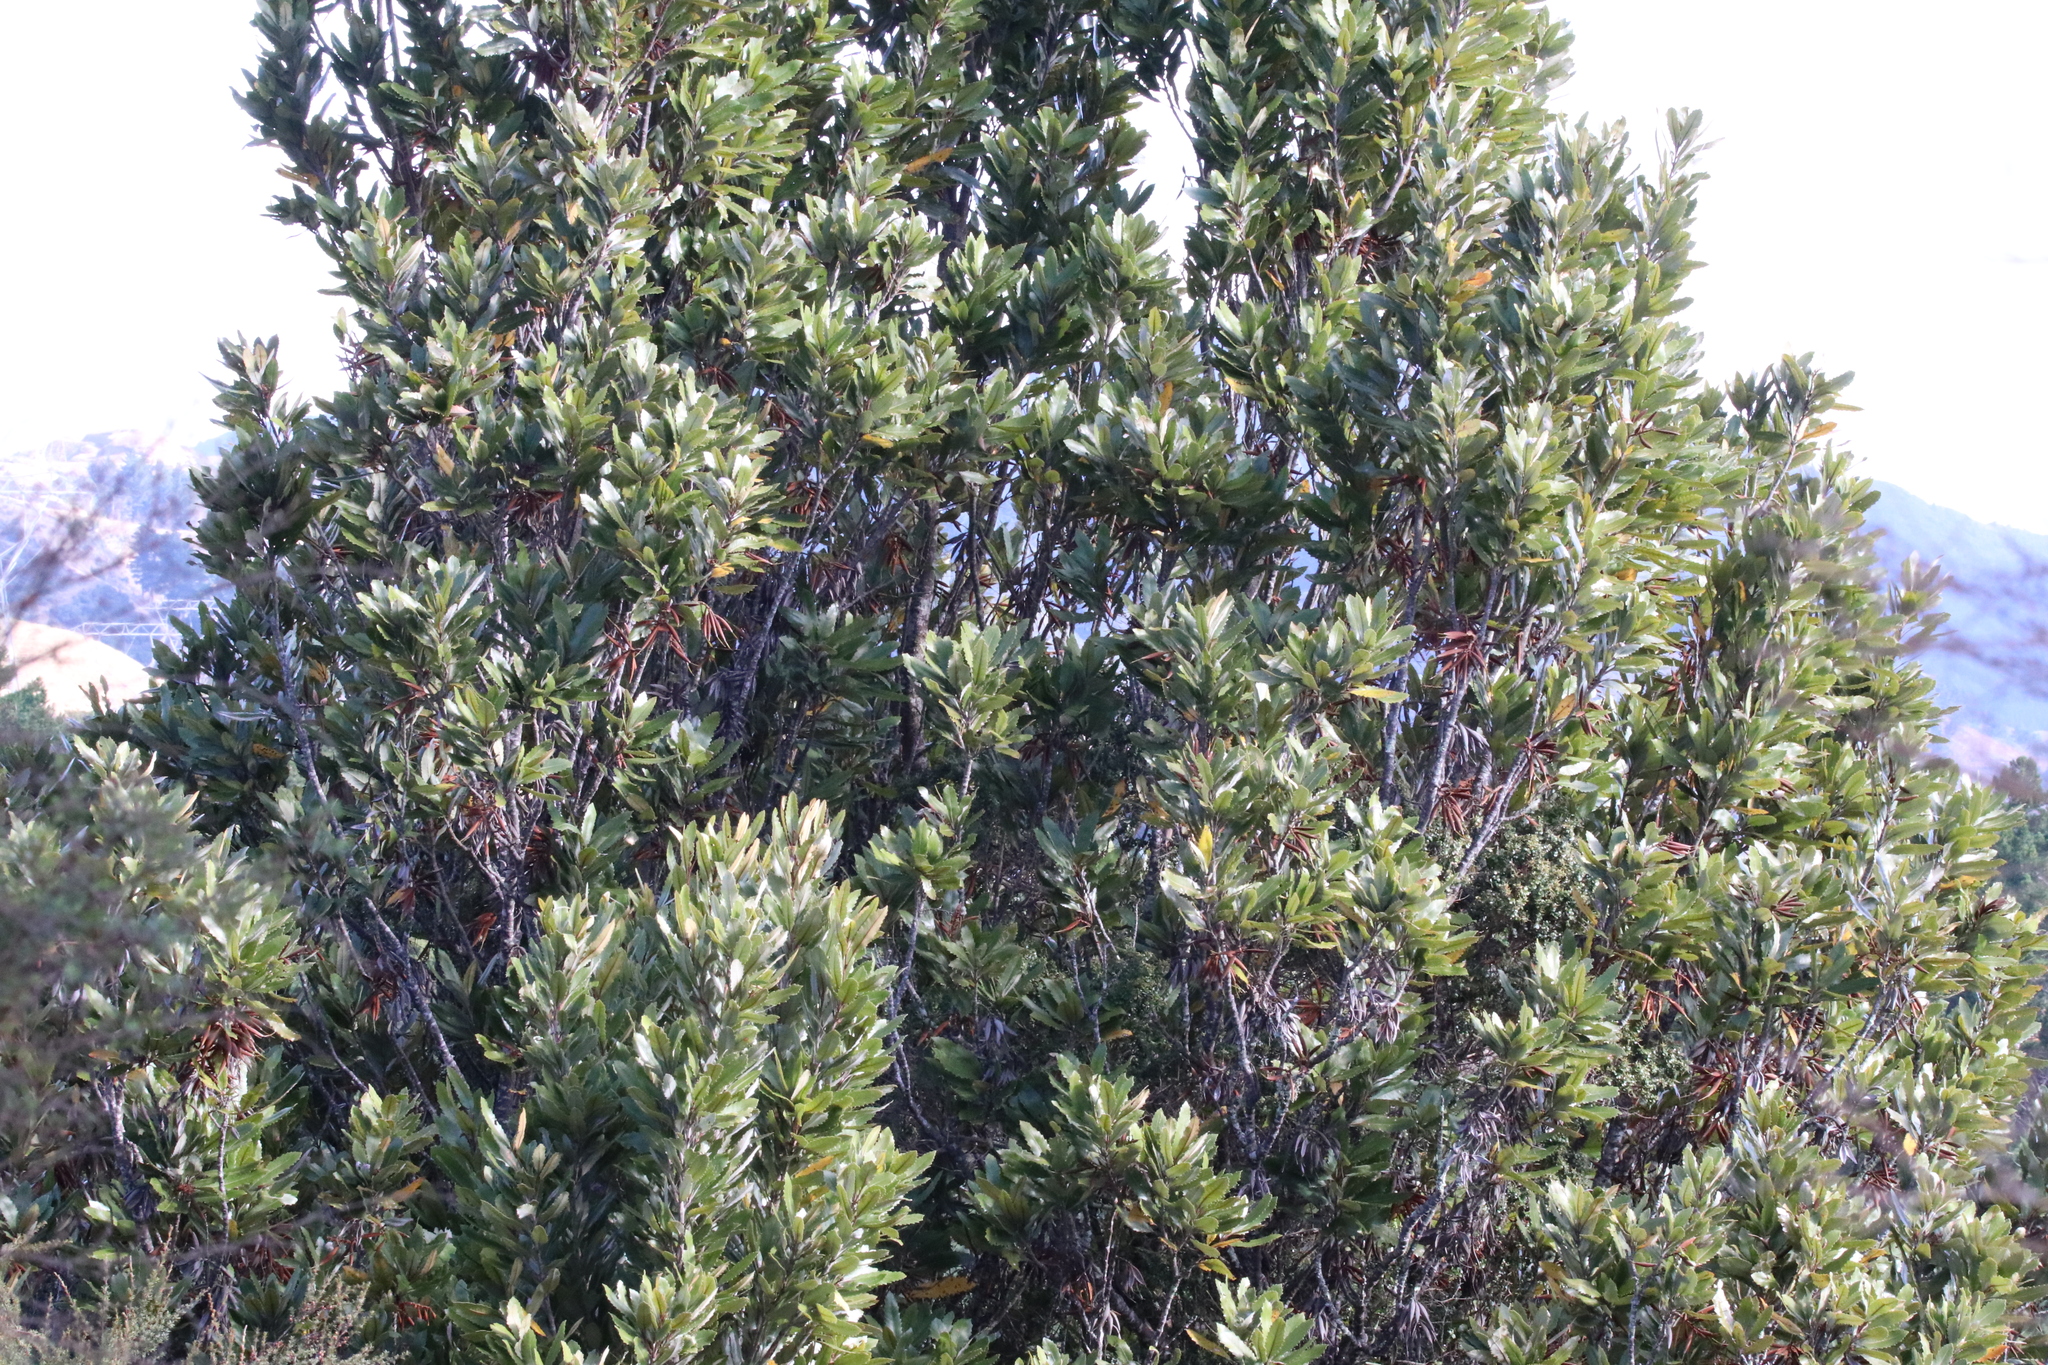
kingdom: Plantae
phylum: Tracheophyta
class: Magnoliopsida
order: Proteales
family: Proteaceae
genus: Knightia
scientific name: Knightia excelsa
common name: New zealand-honeysuckle
